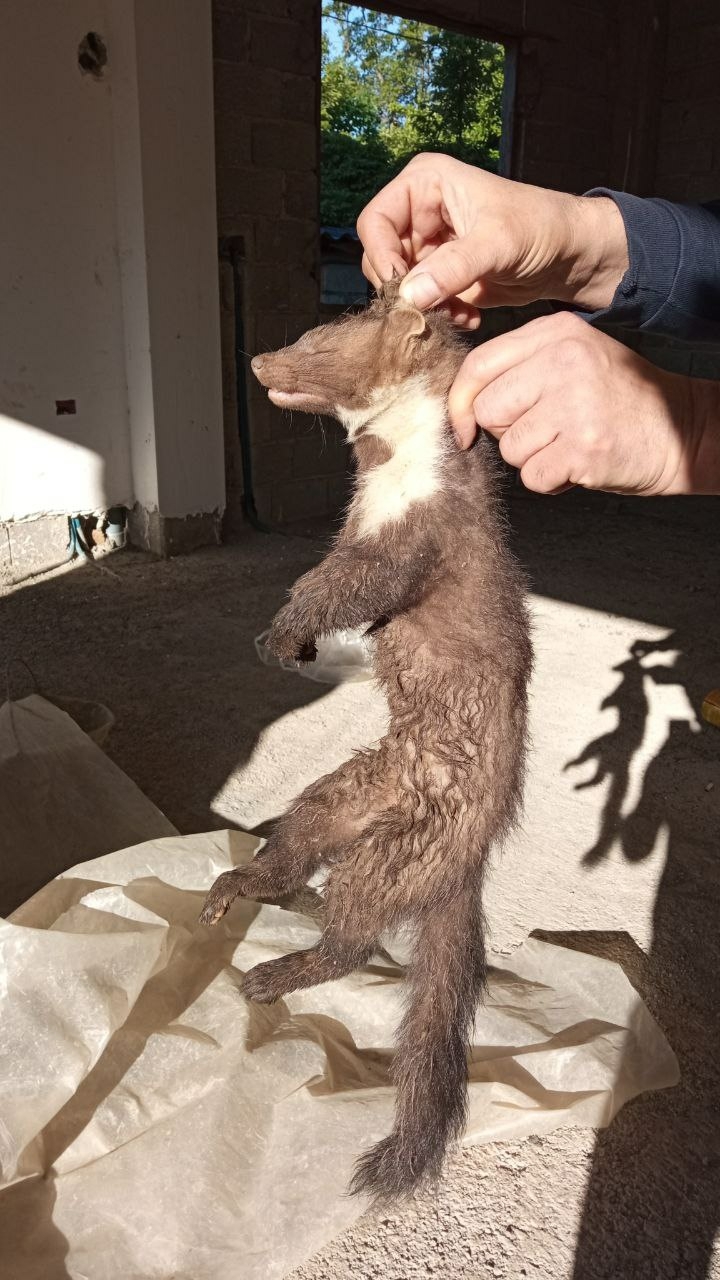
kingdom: Animalia
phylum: Chordata
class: Mammalia
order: Carnivora
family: Mustelidae
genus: Martes
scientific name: Martes foina
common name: Beech marten
